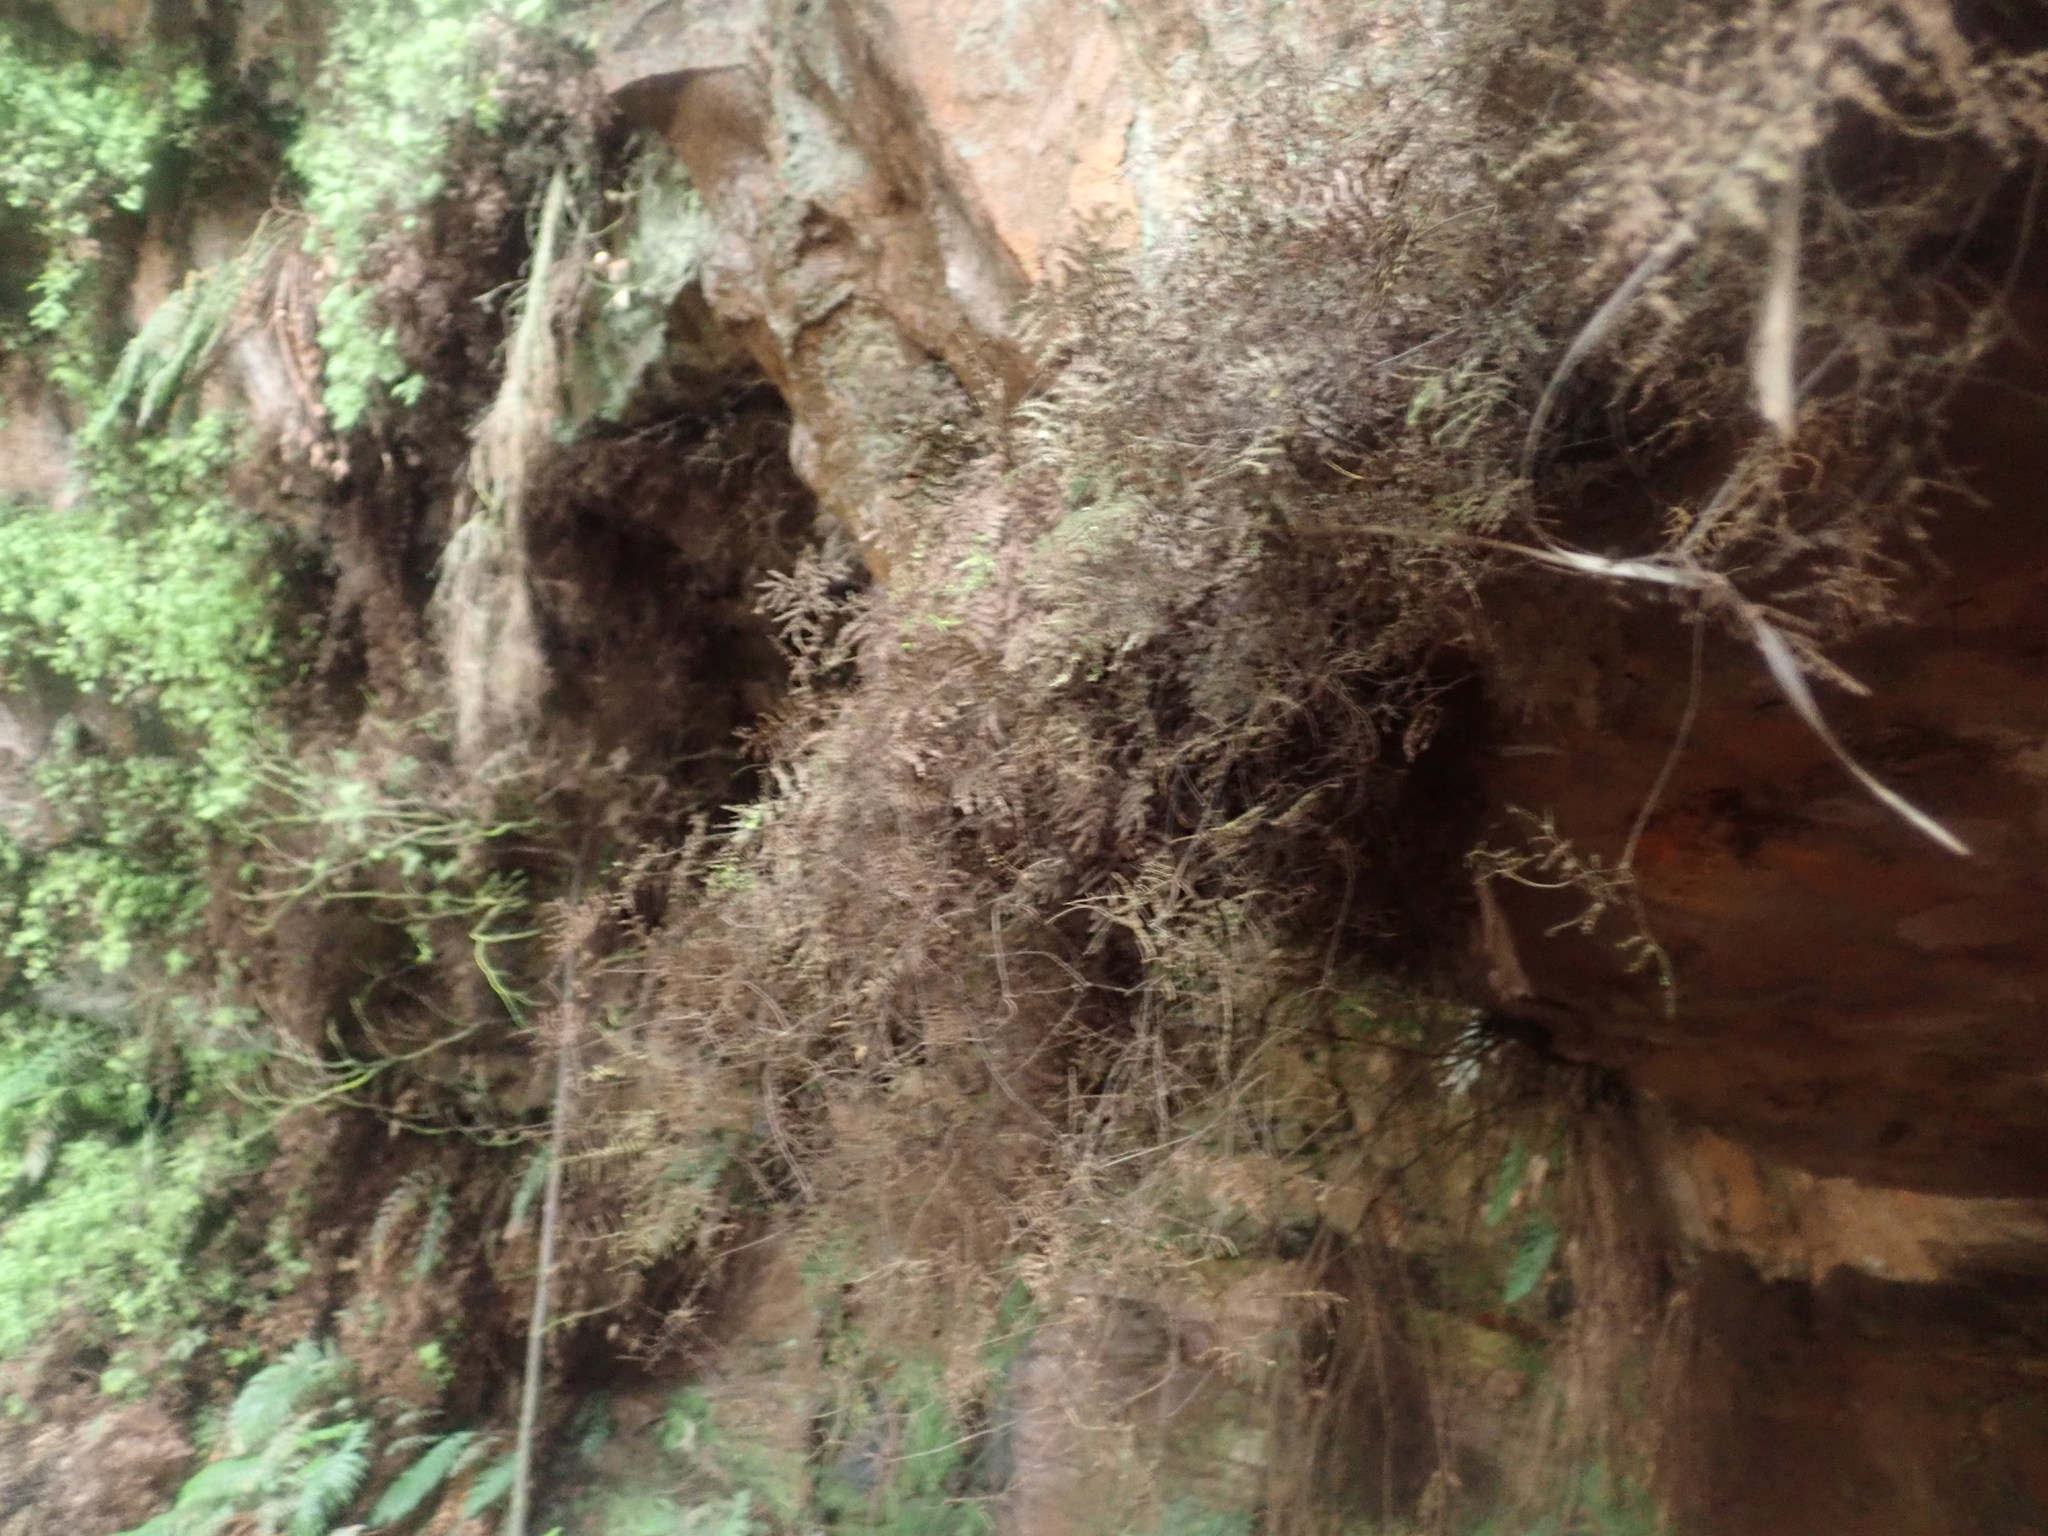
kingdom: Plantae
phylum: Tracheophyta
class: Polypodiopsida
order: Gleicheniales
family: Gleicheniaceae
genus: Gleichenia
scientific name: Gleichenia rupestris
